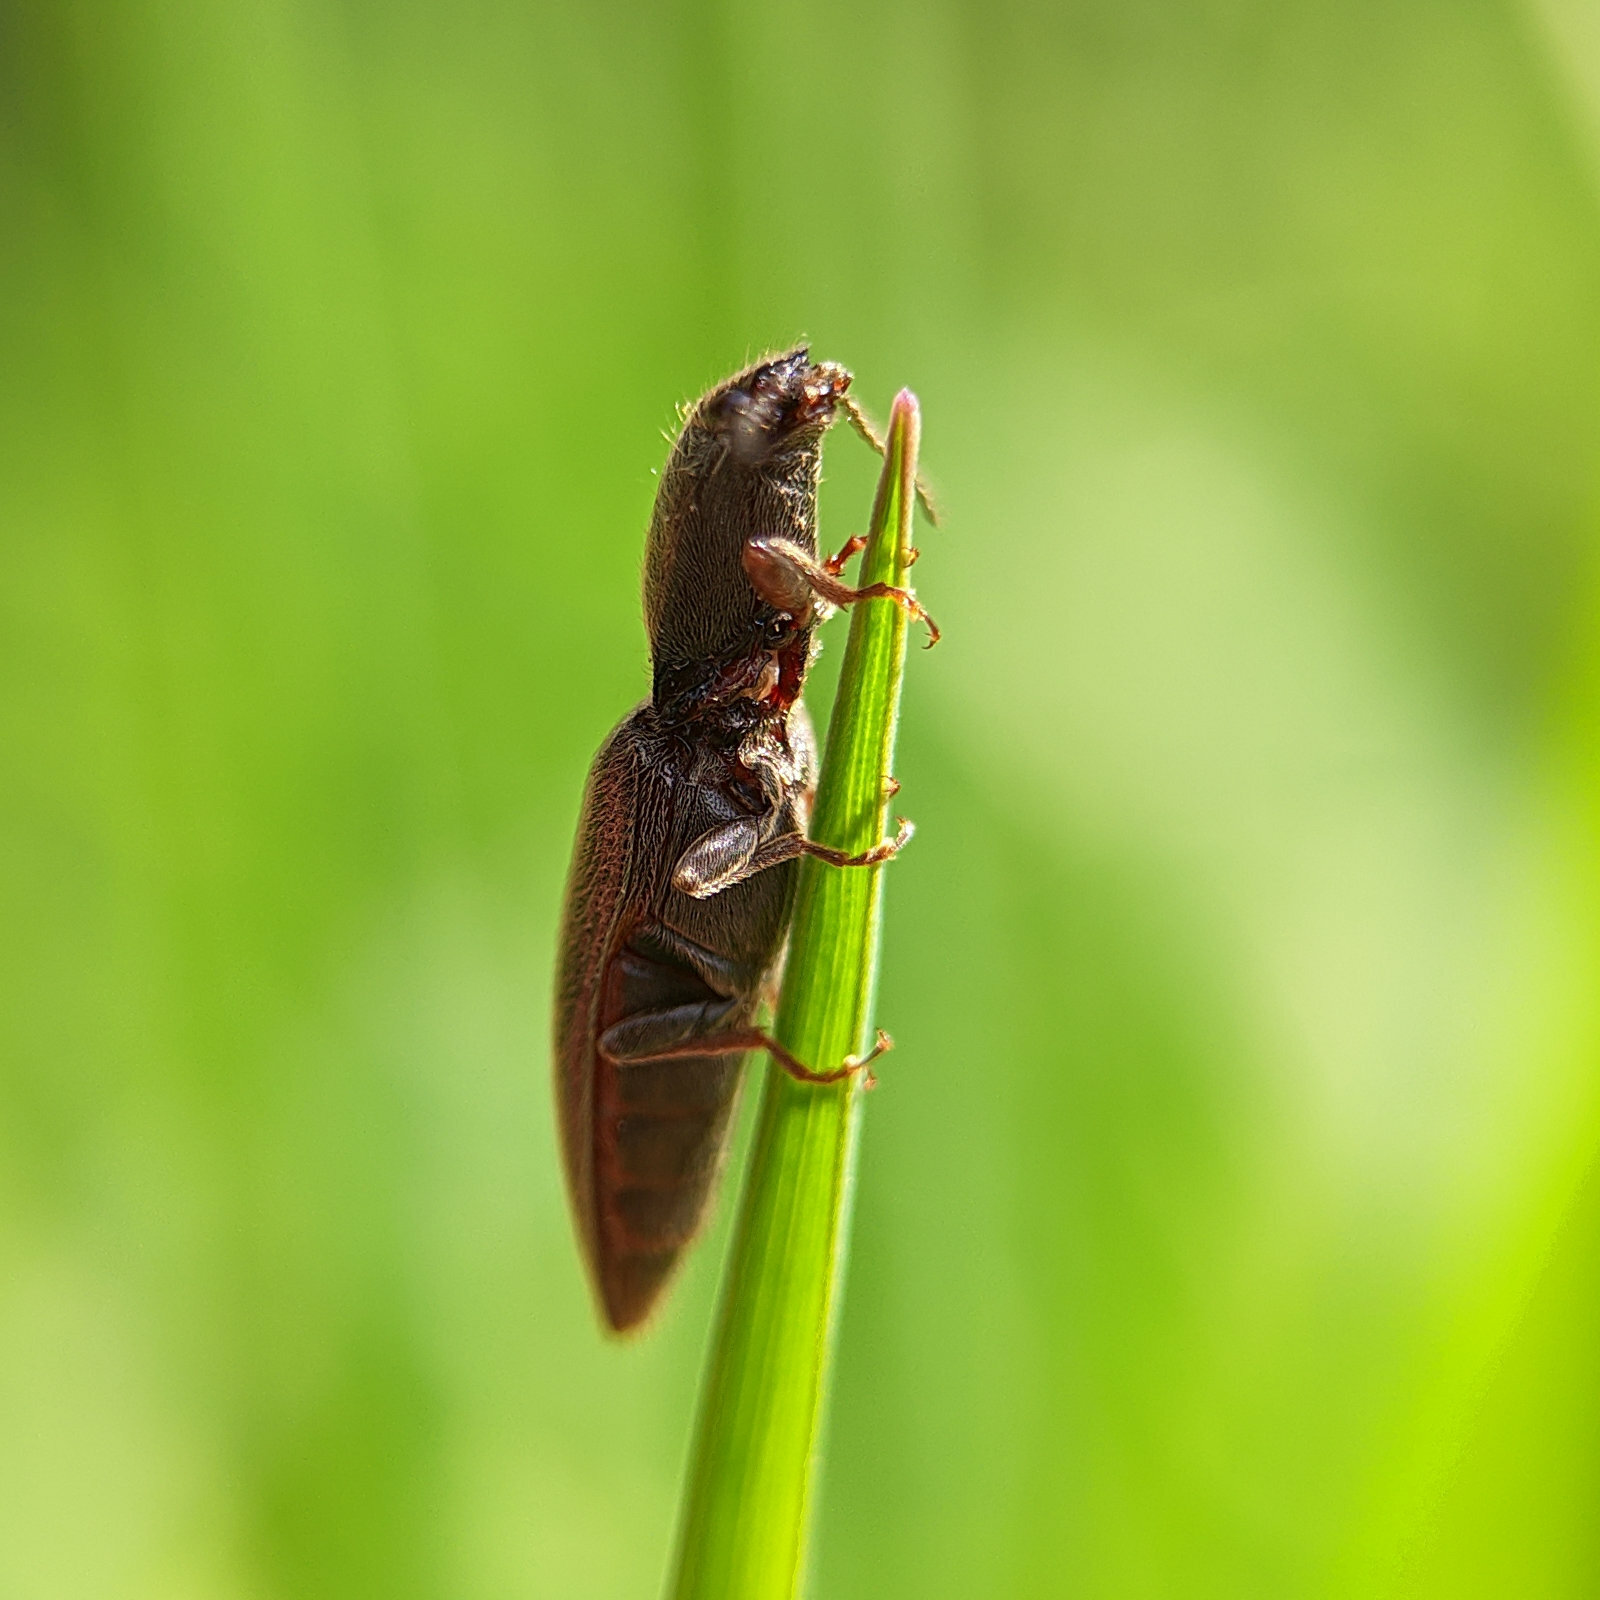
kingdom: Animalia
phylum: Arthropoda
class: Insecta
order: Coleoptera
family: Elateridae
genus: Athous
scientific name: Athous haemorrhoidalis
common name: Red-brown click beetle
